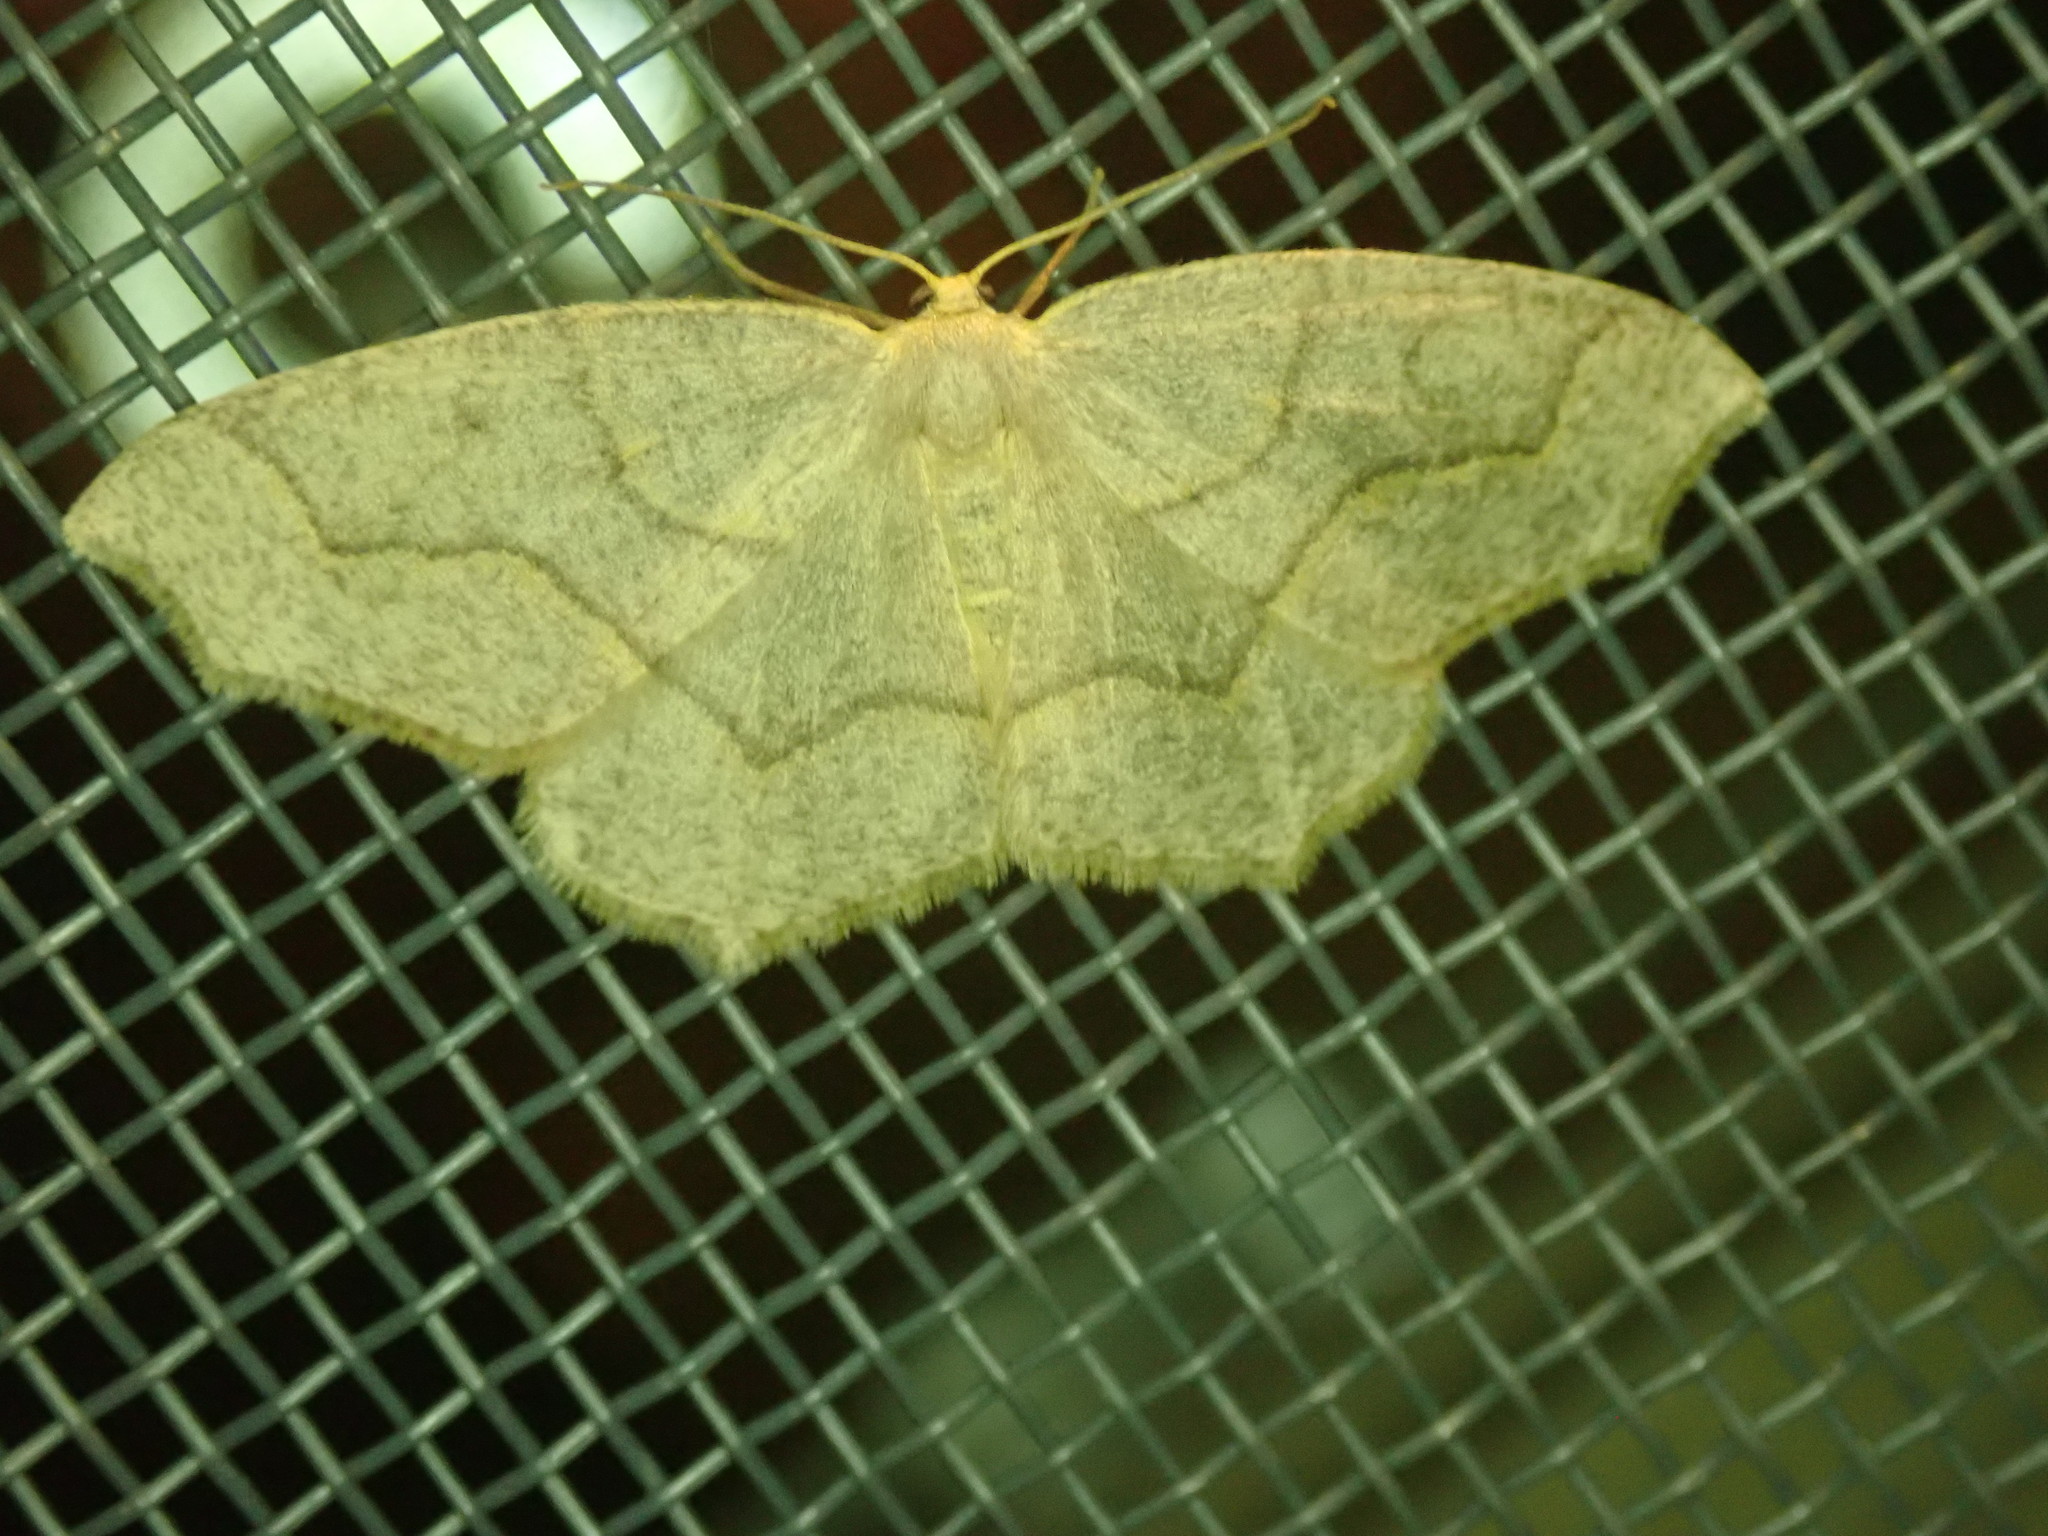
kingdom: Animalia
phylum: Arthropoda
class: Insecta
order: Lepidoptera
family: Geometridae
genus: Lambdina
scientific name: Lambdina fiscellaria
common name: Hemlock looper
